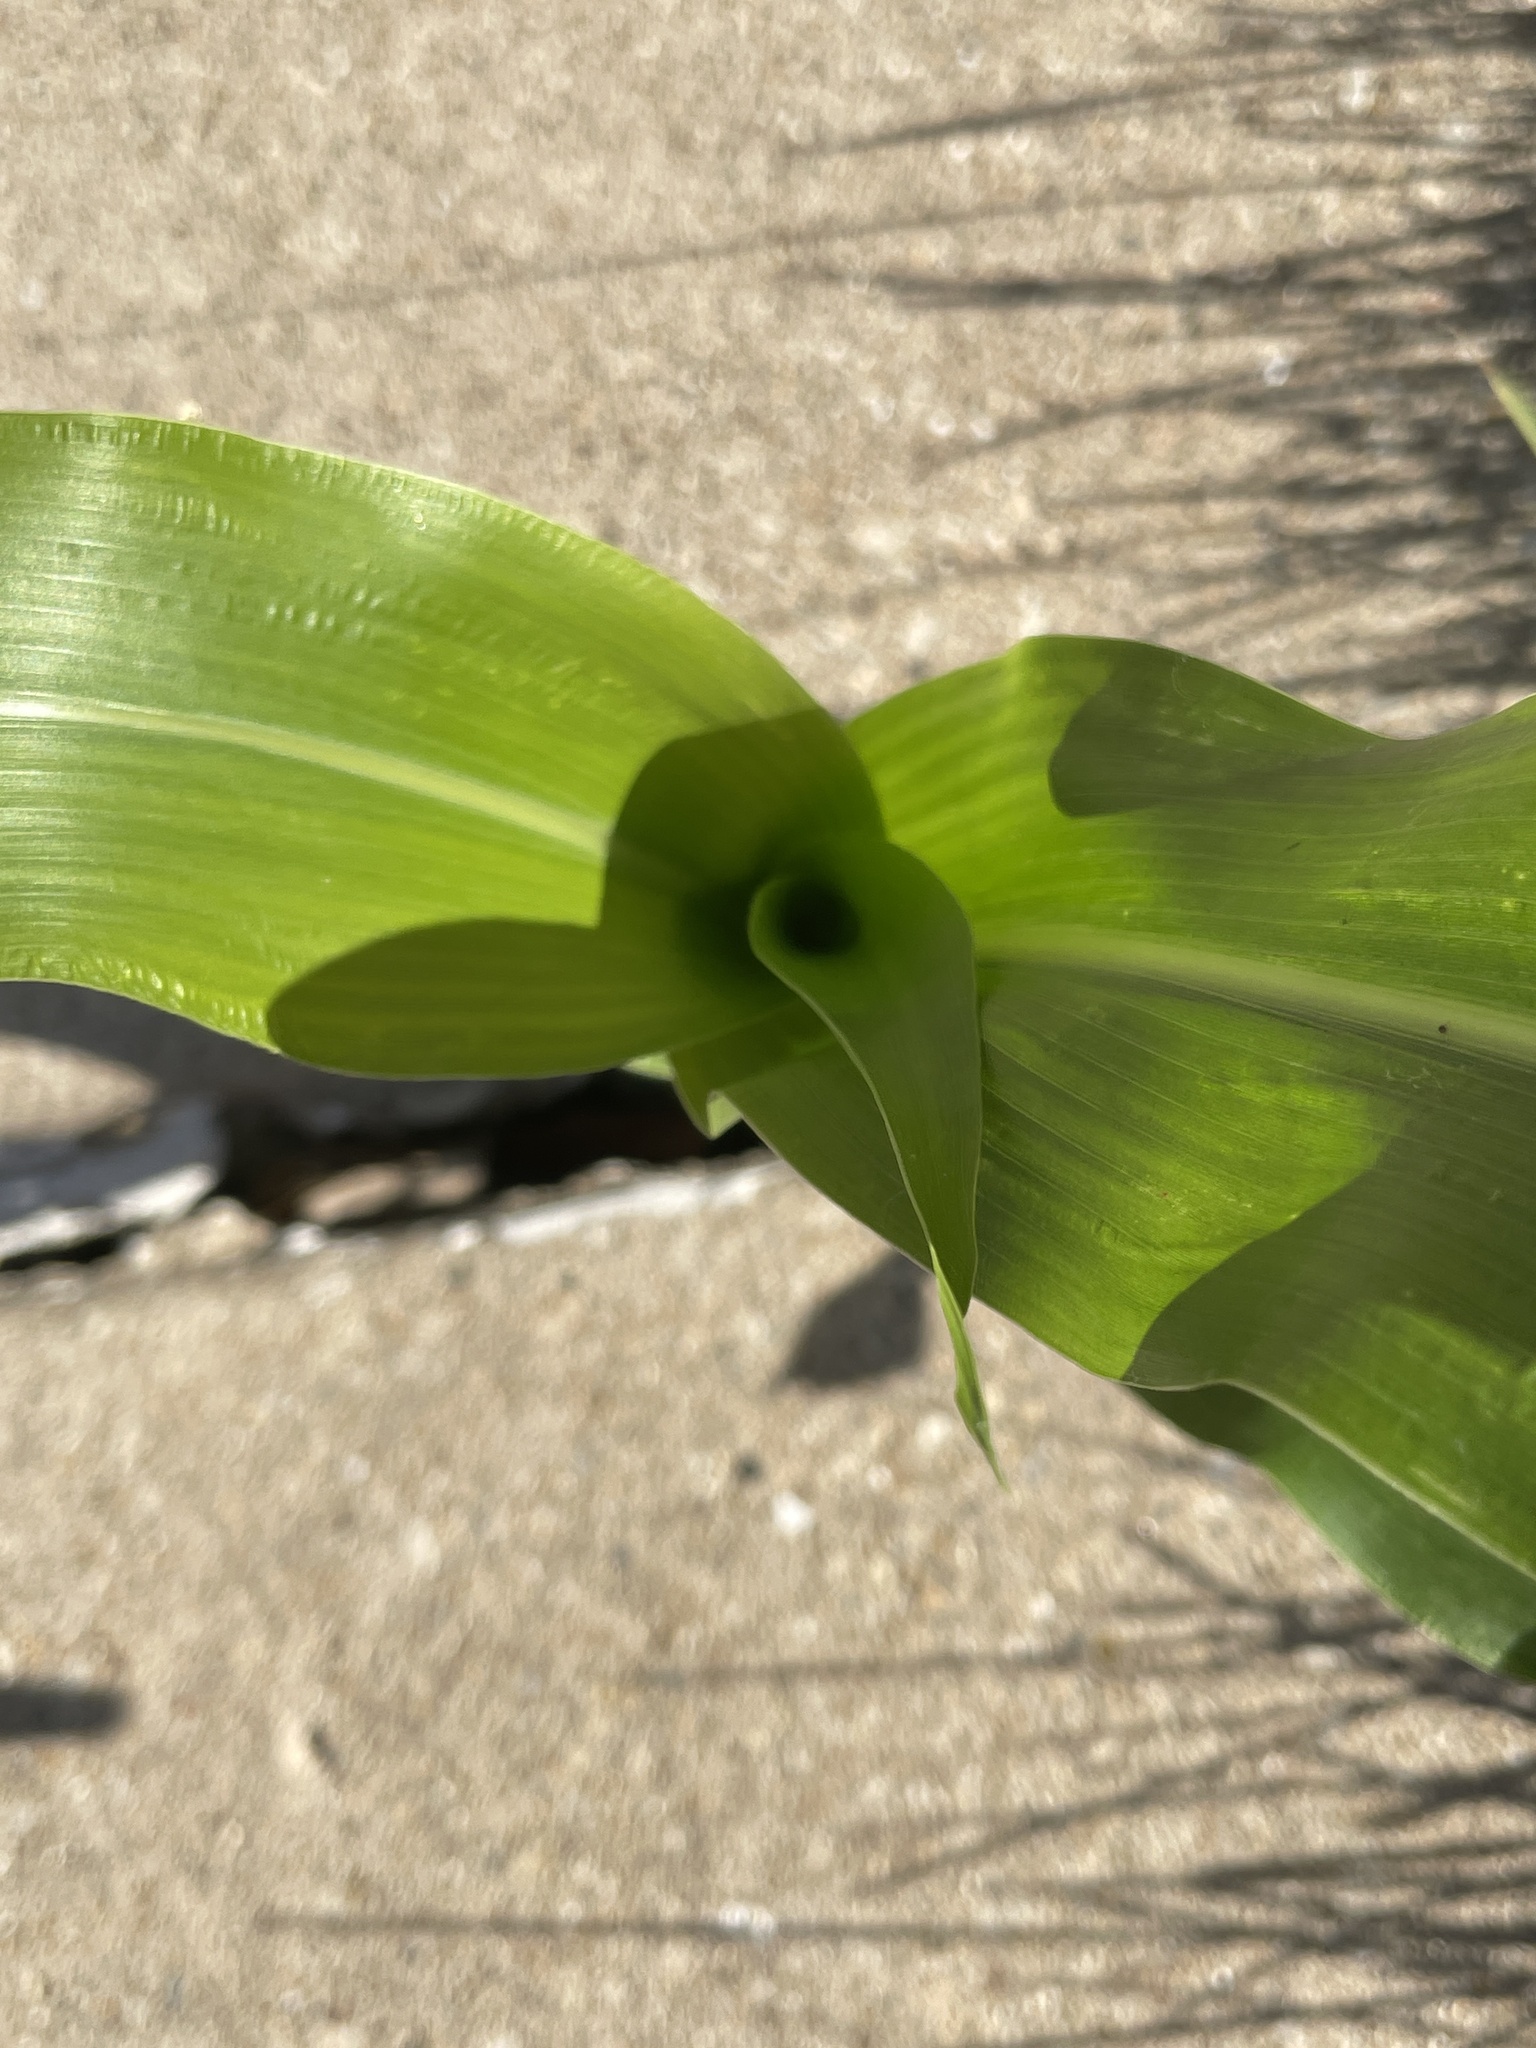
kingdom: Plantae
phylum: Tracheophyta
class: Liliopsida
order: Poales
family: Poaceae
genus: Zea
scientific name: Zea mays
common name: Maize
